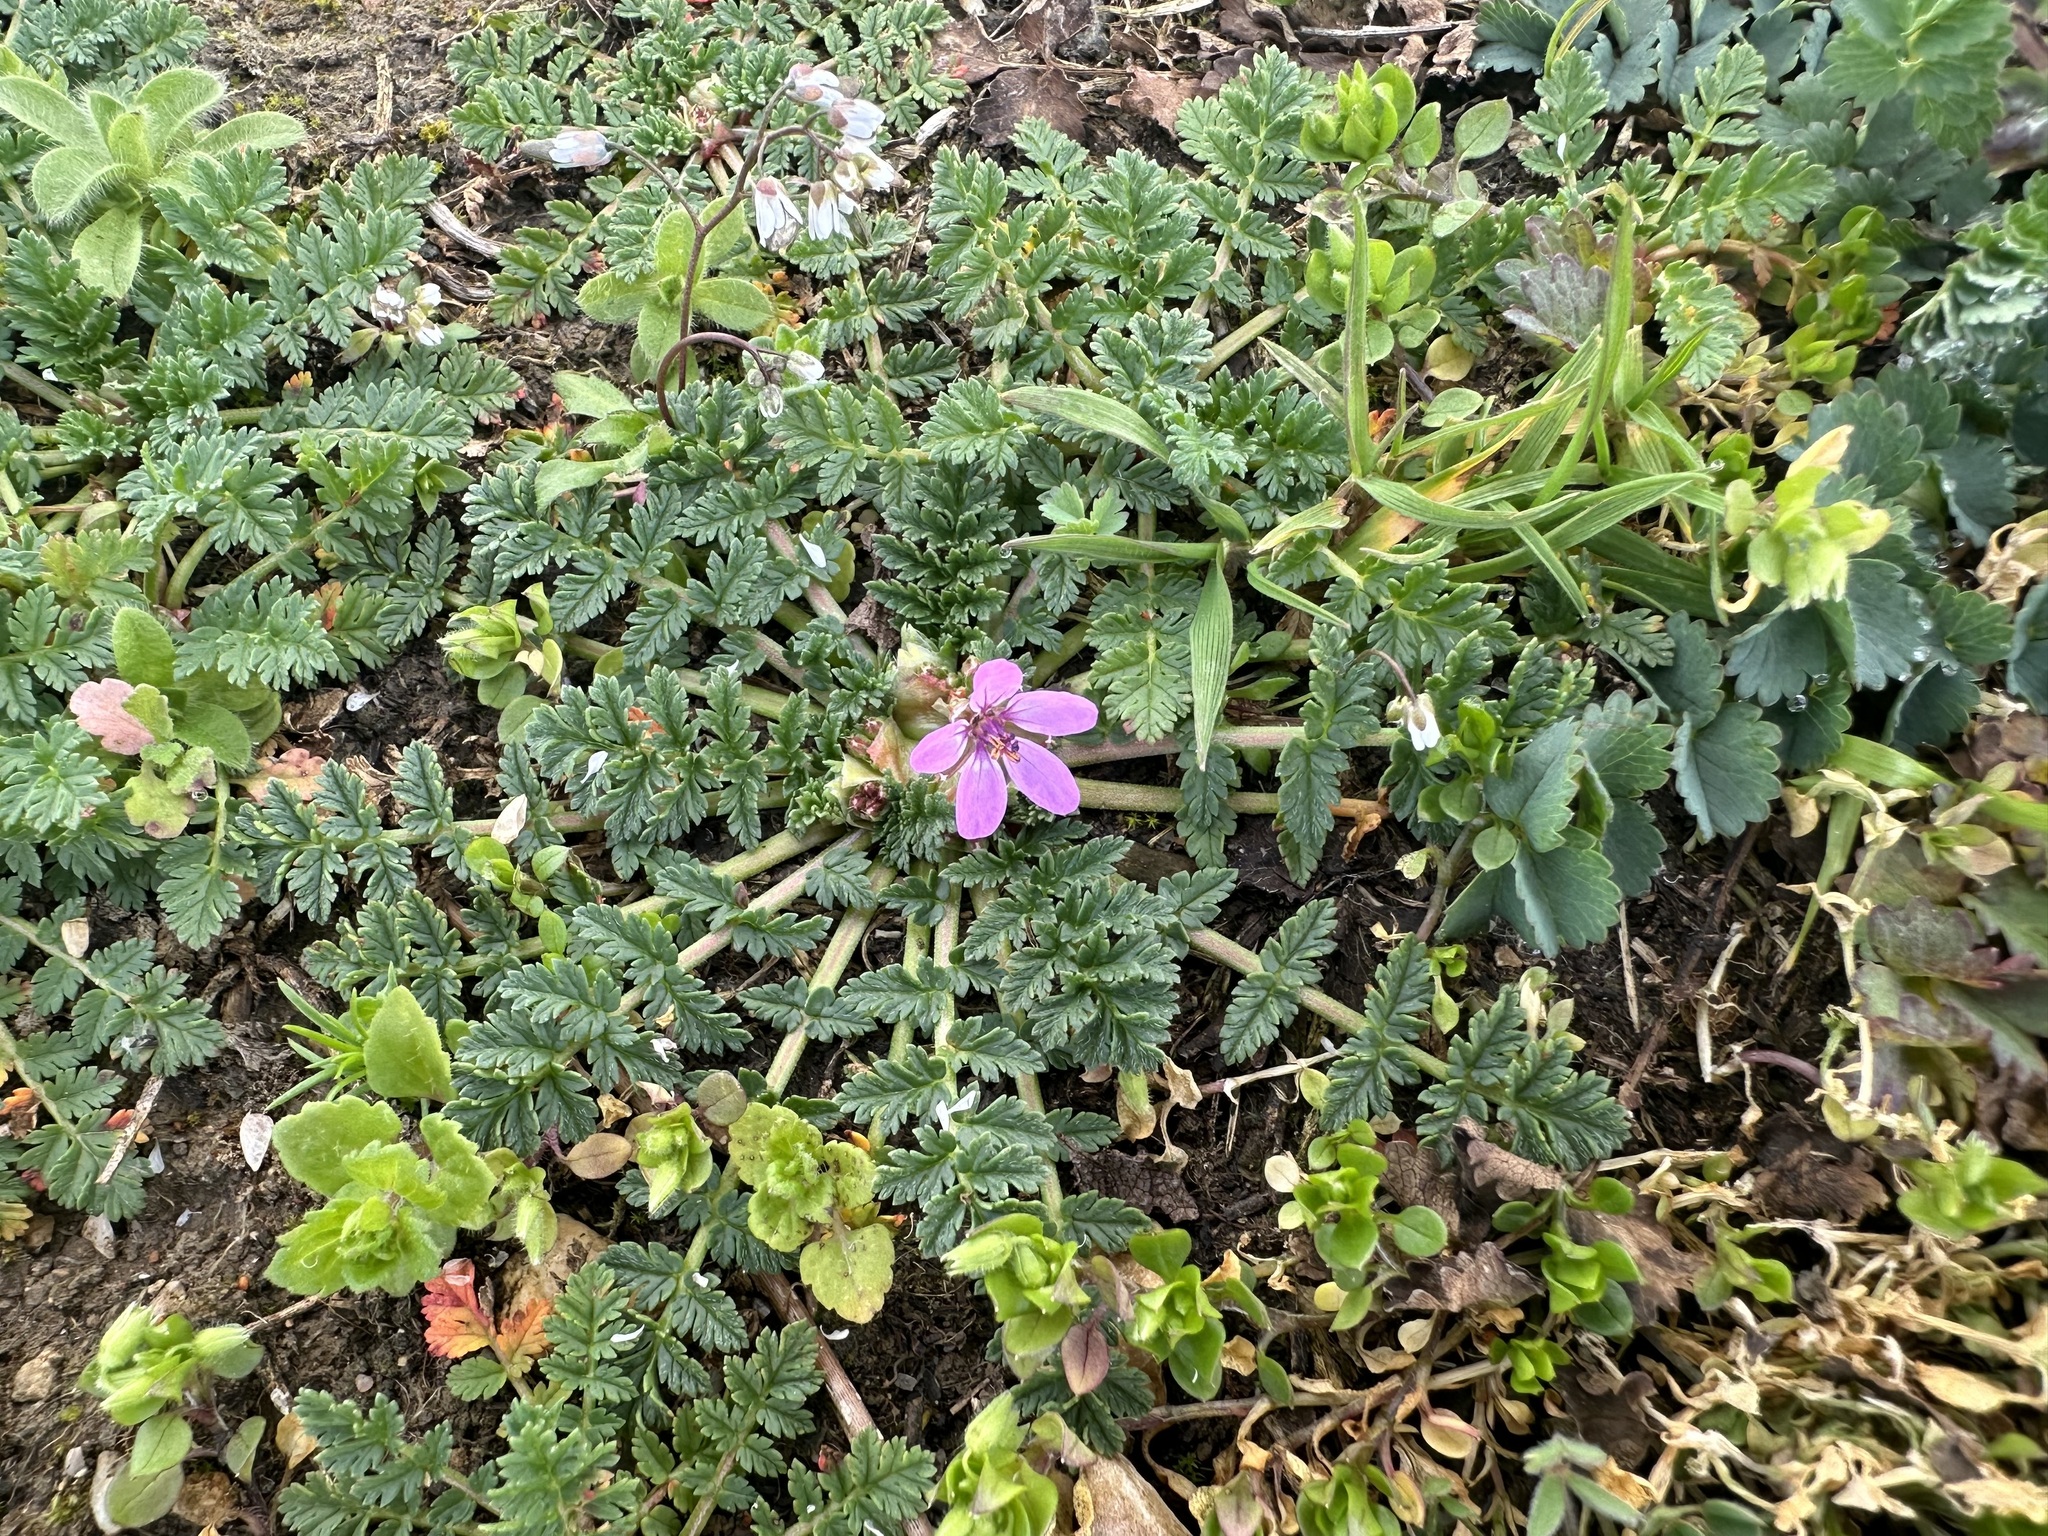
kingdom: Plantae
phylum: Tracheophyta
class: Magnoliopsida
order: Geraniales
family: Geraniaceae
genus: Erodium
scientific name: Erodium cicutarium
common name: Common stork's-bill
